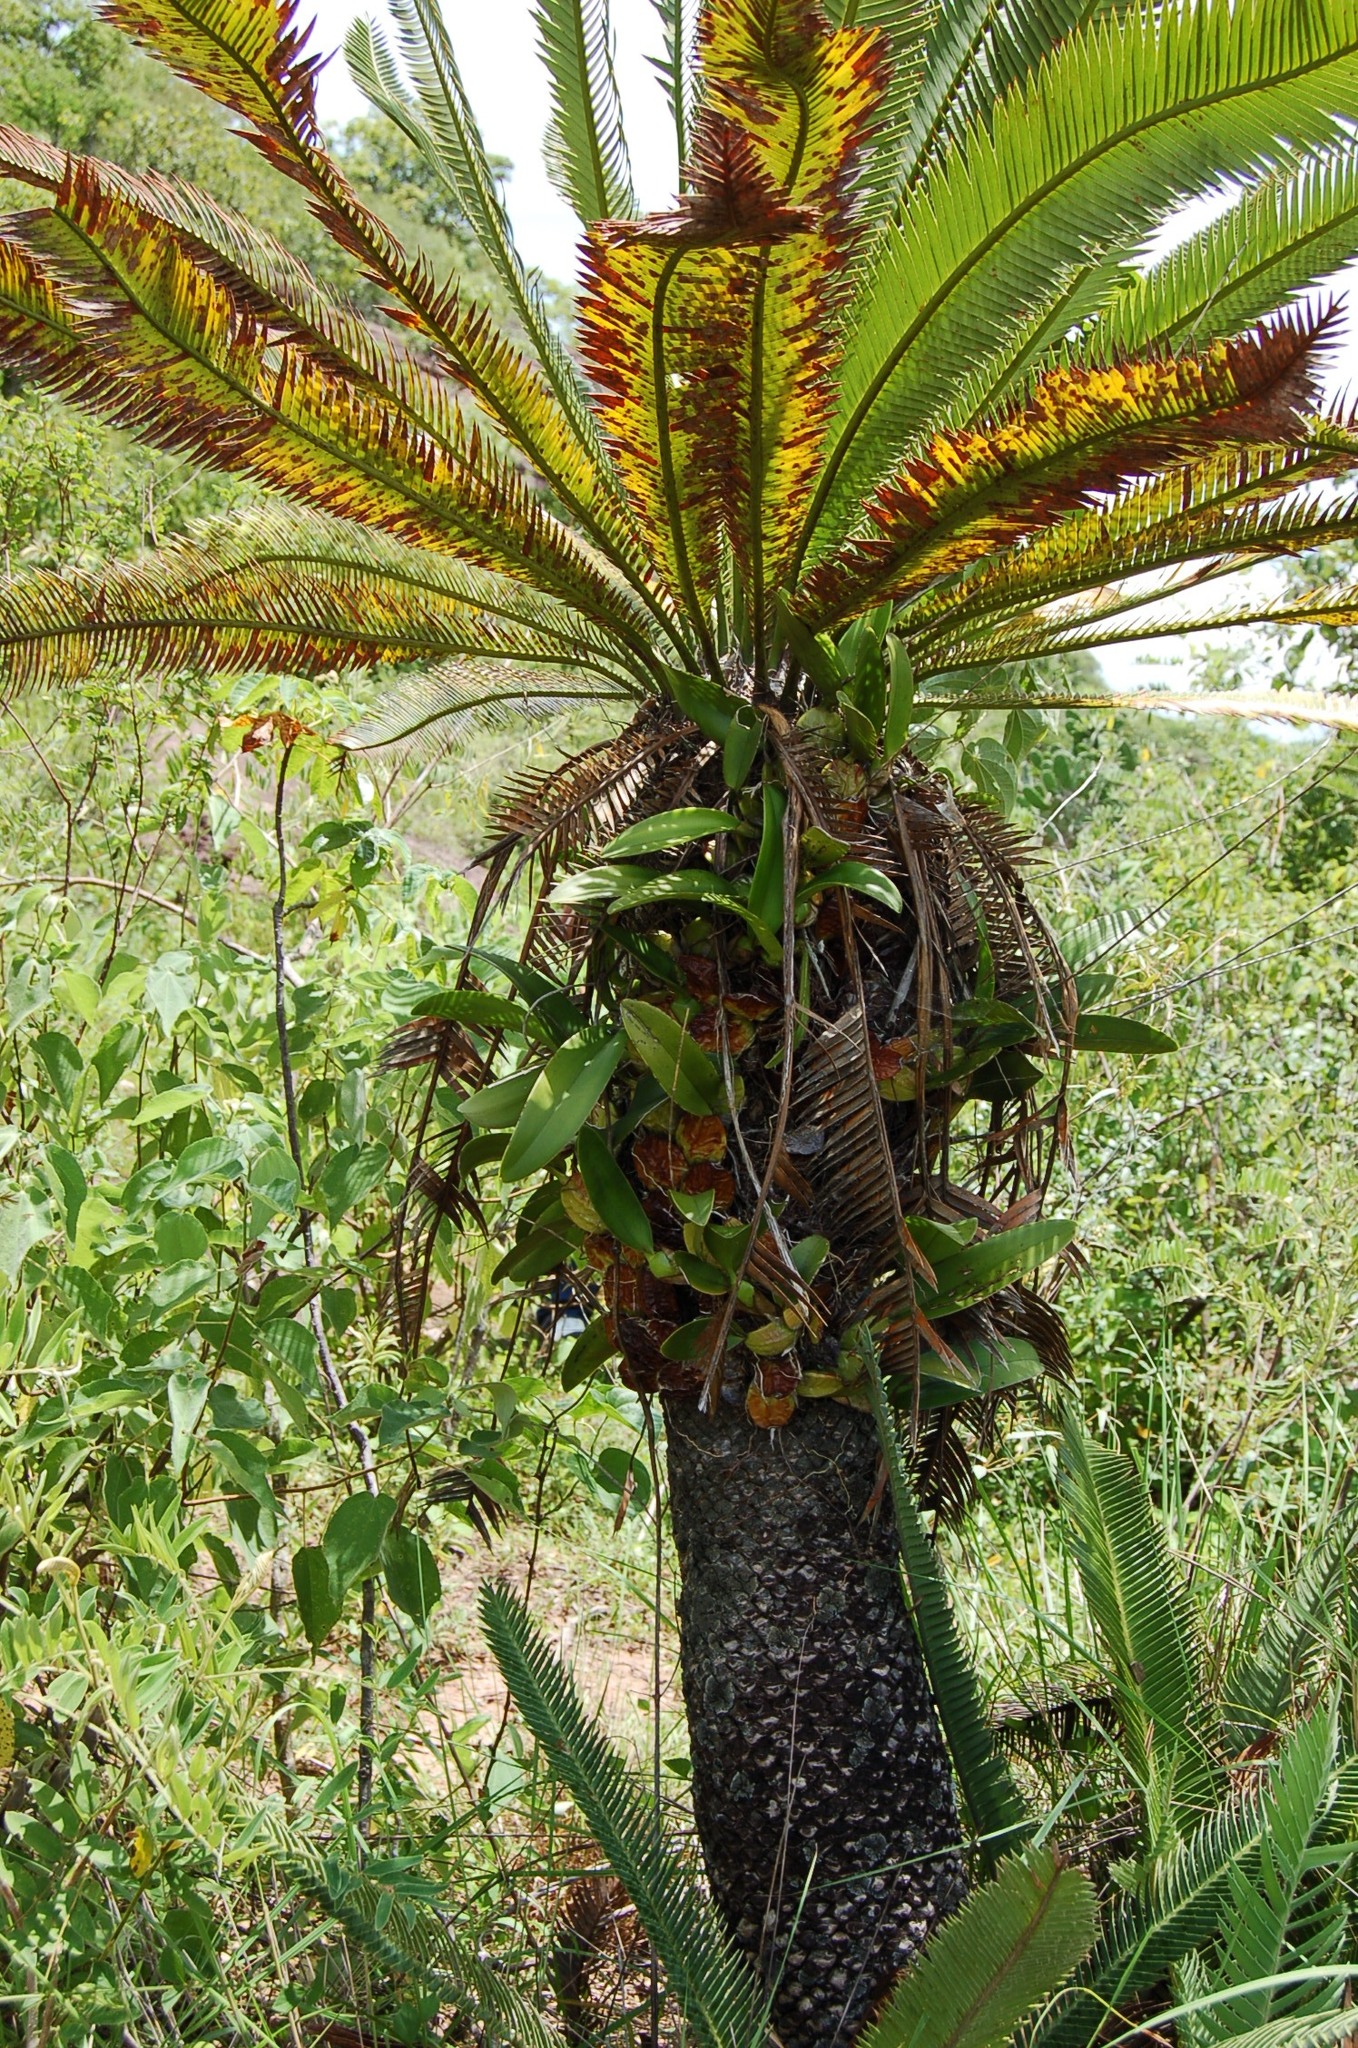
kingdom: Plantae
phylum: Tracheophyta
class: Cycadopsida
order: Cycadales
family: Zamiaceae
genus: Dioon
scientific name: Dioon merolae
